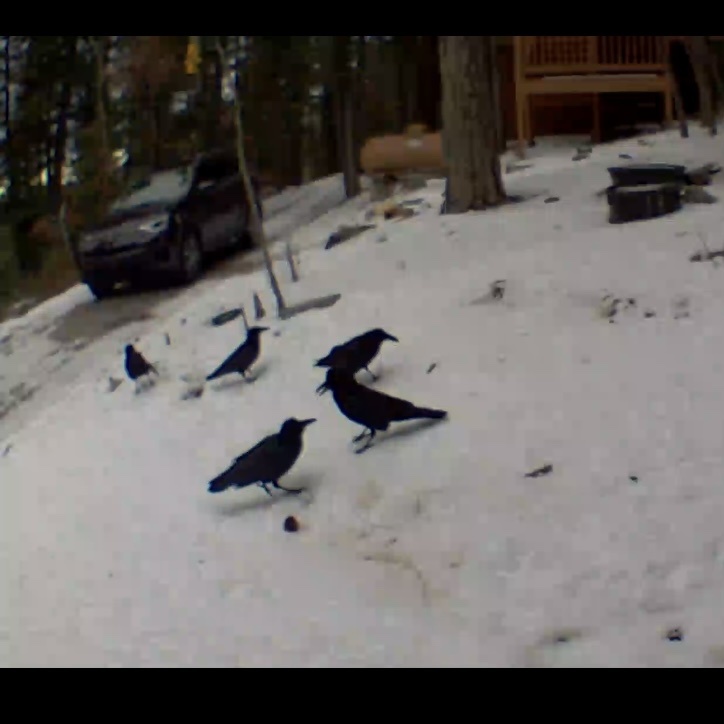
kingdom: Animalia
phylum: Chordata
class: Aves
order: Passeriformes
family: Corvidae
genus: Corvus
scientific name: Corvus corax
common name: Common raven
